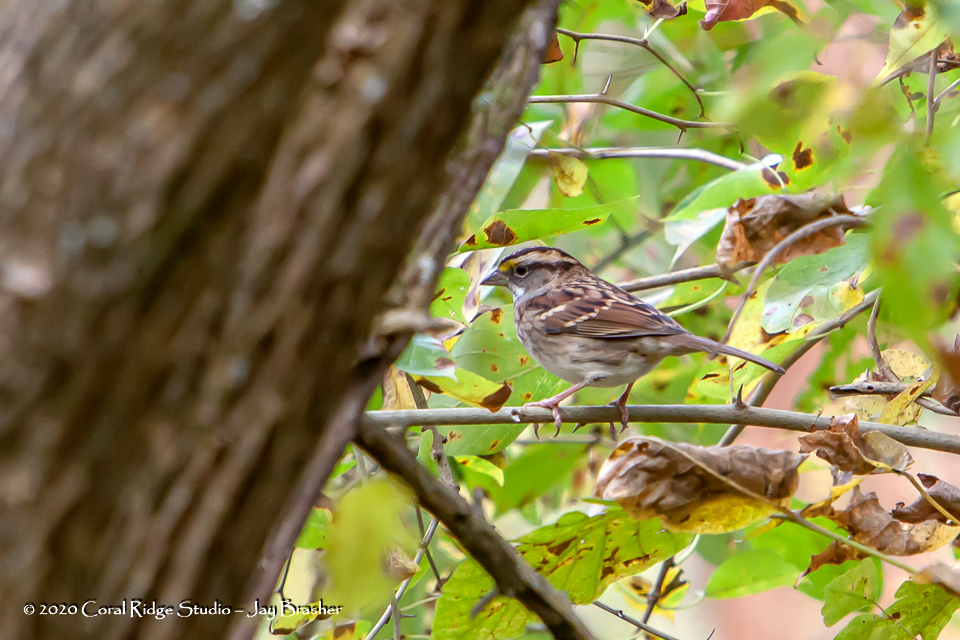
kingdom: Animalia
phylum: Chordata
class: Aves
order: Passeriformes
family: Passerellidae
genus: Zonotrichia
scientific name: Zonotrichia albicollis
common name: White-throated sparrow
